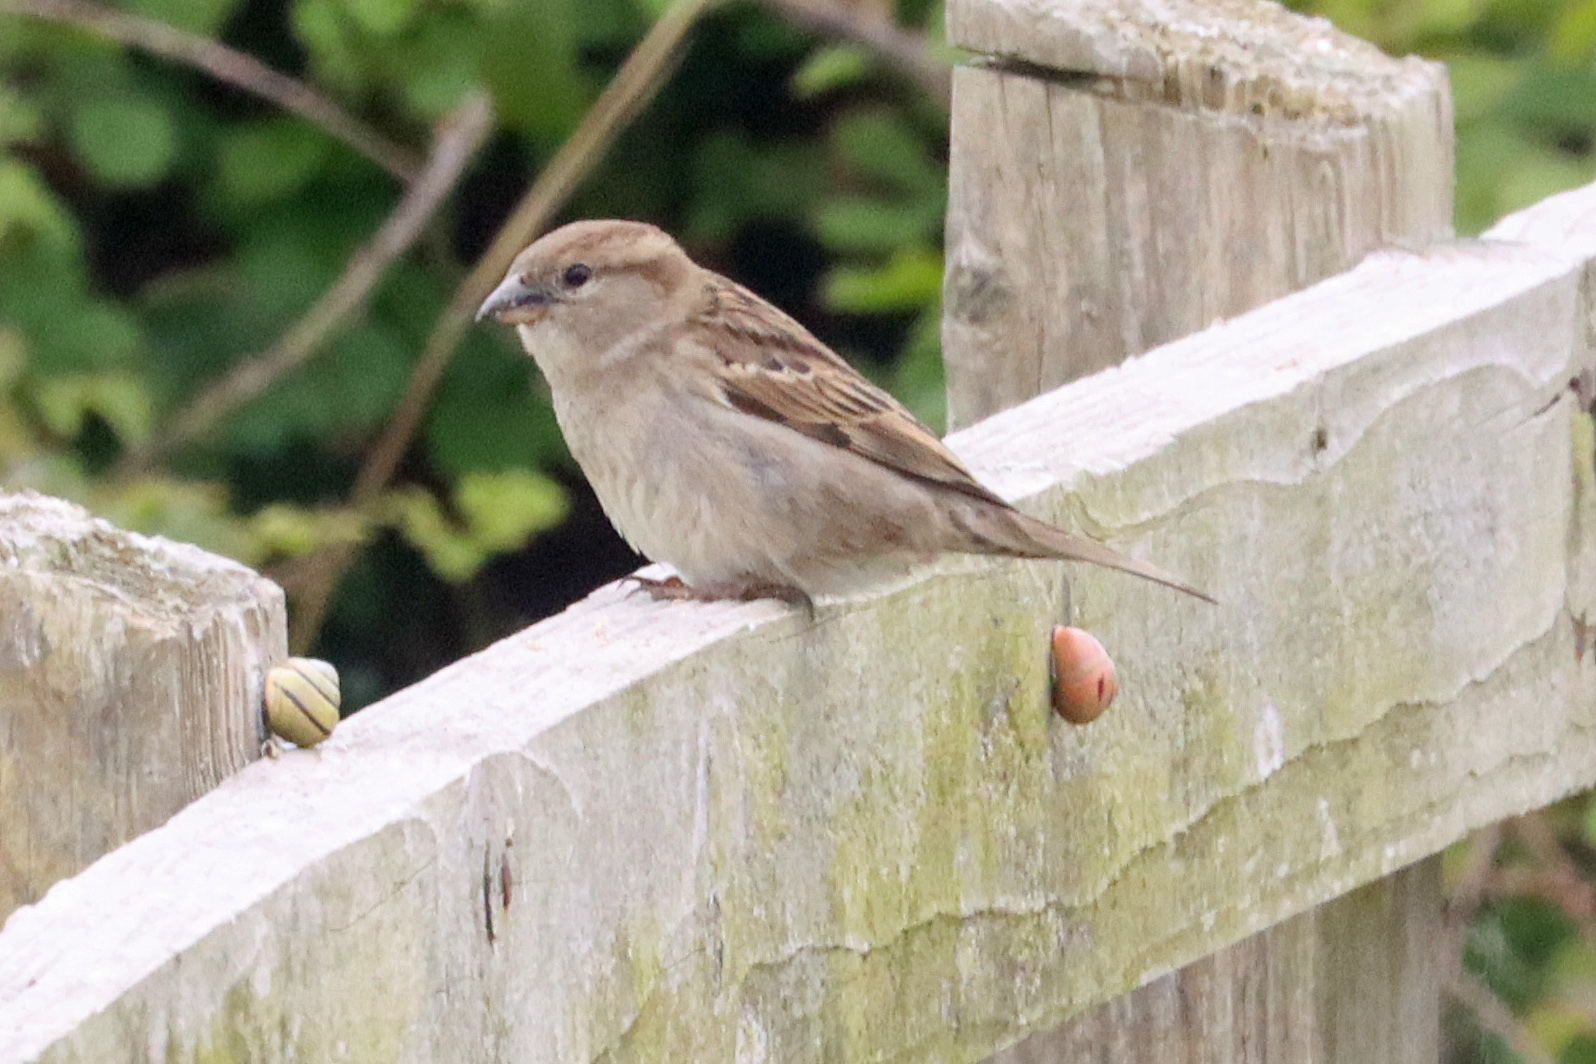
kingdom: Animalia
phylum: Chordata
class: Aves
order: Passeriformes
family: Passeridae
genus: Passer
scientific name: Passer domesticus
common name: House sparrow
